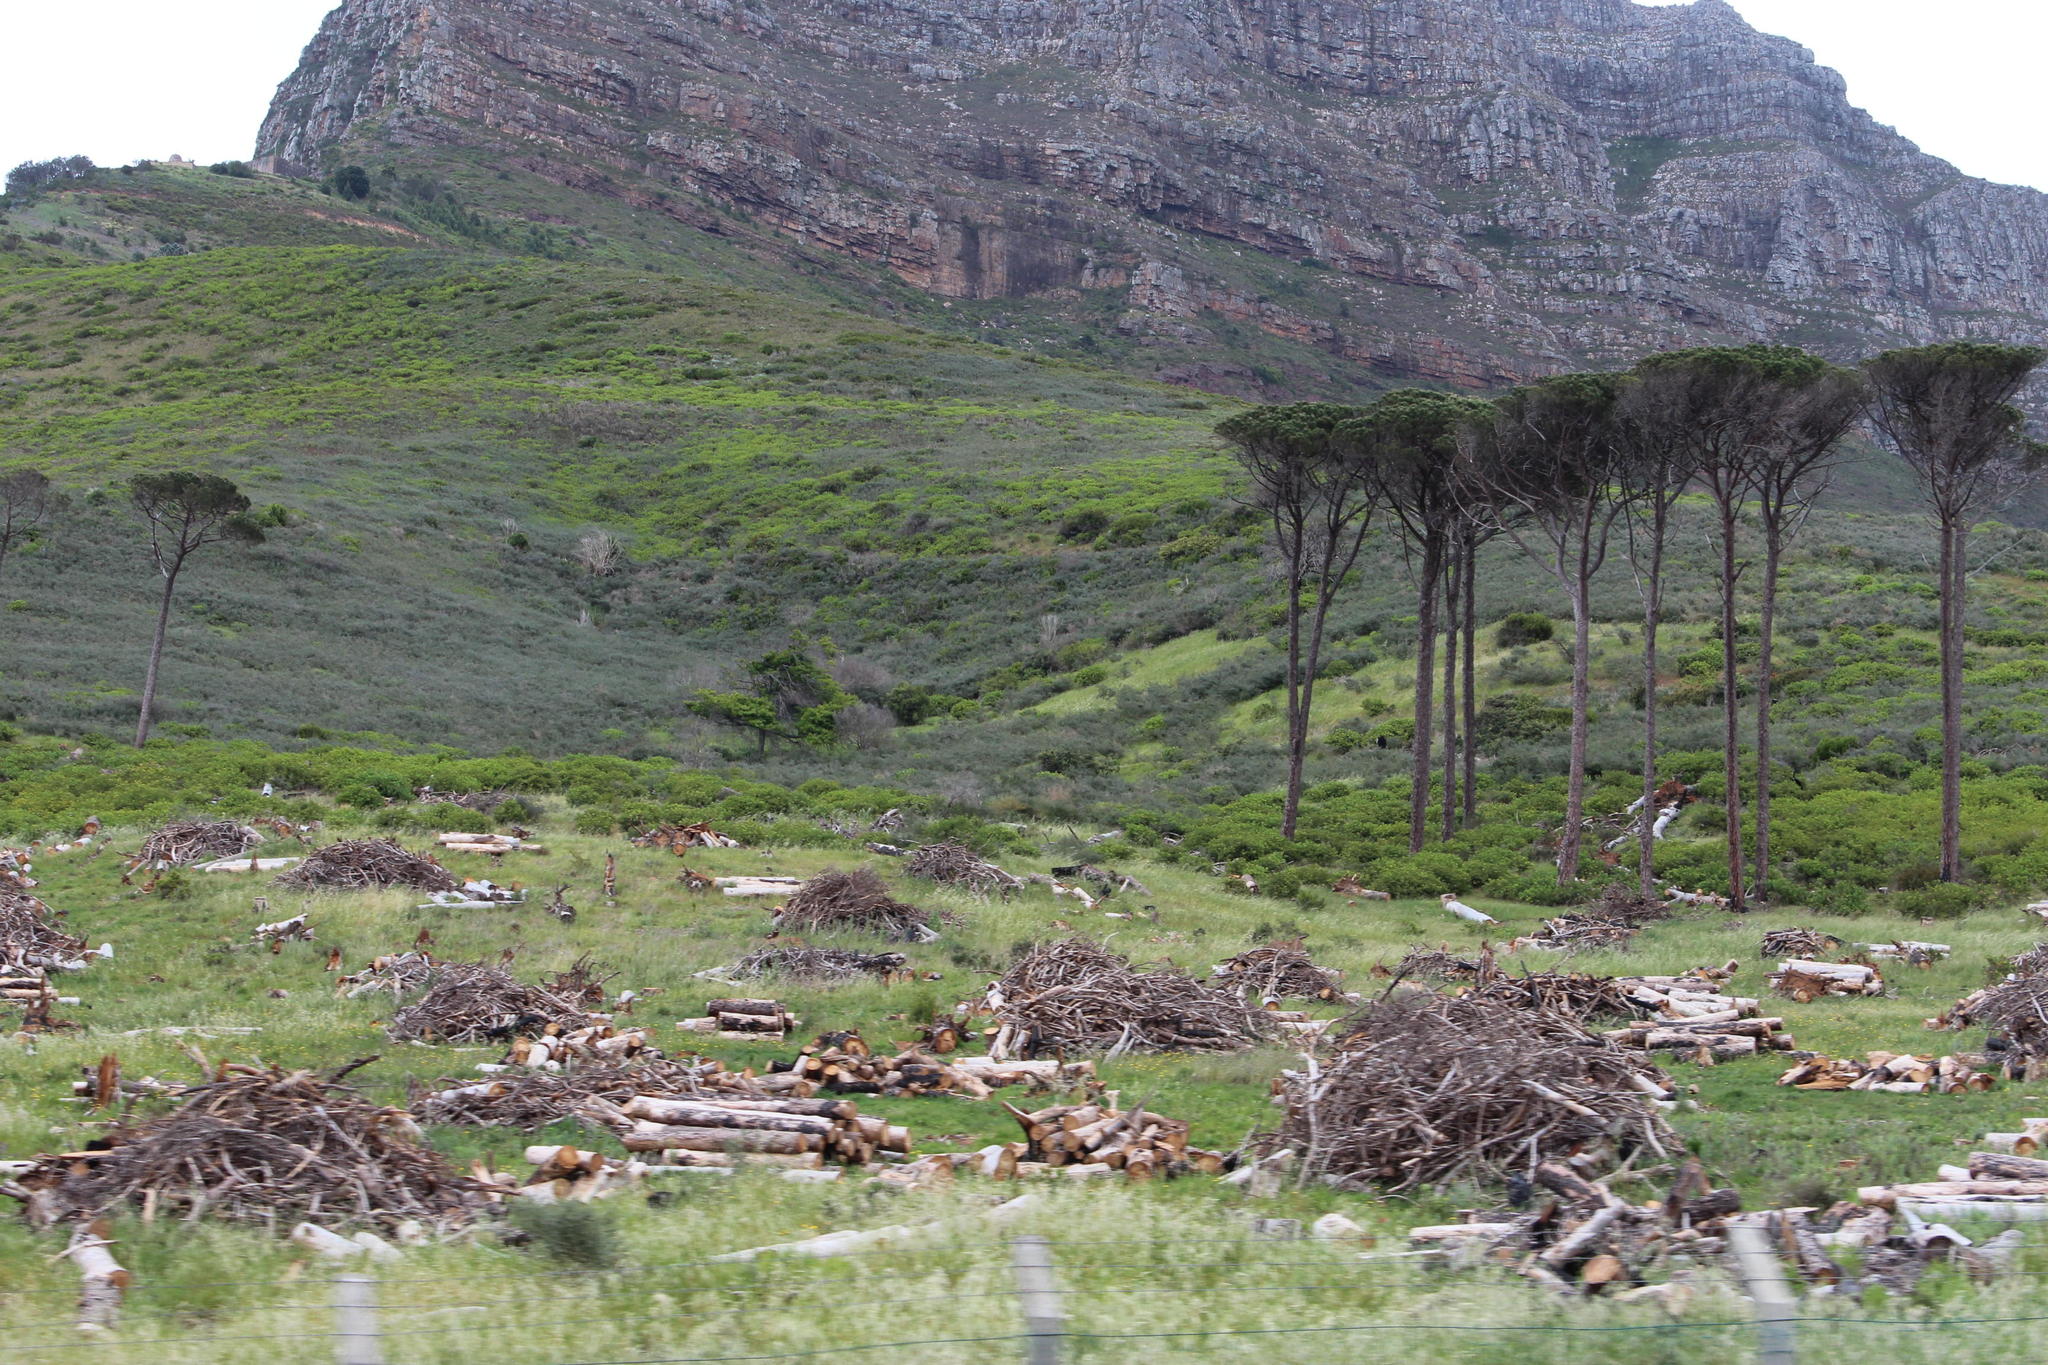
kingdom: Plantae
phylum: Tracheophyta
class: Pinopsida
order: Pinales
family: Pinaceae
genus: Pinus
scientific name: Pinus pinea
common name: Italian stone pine
